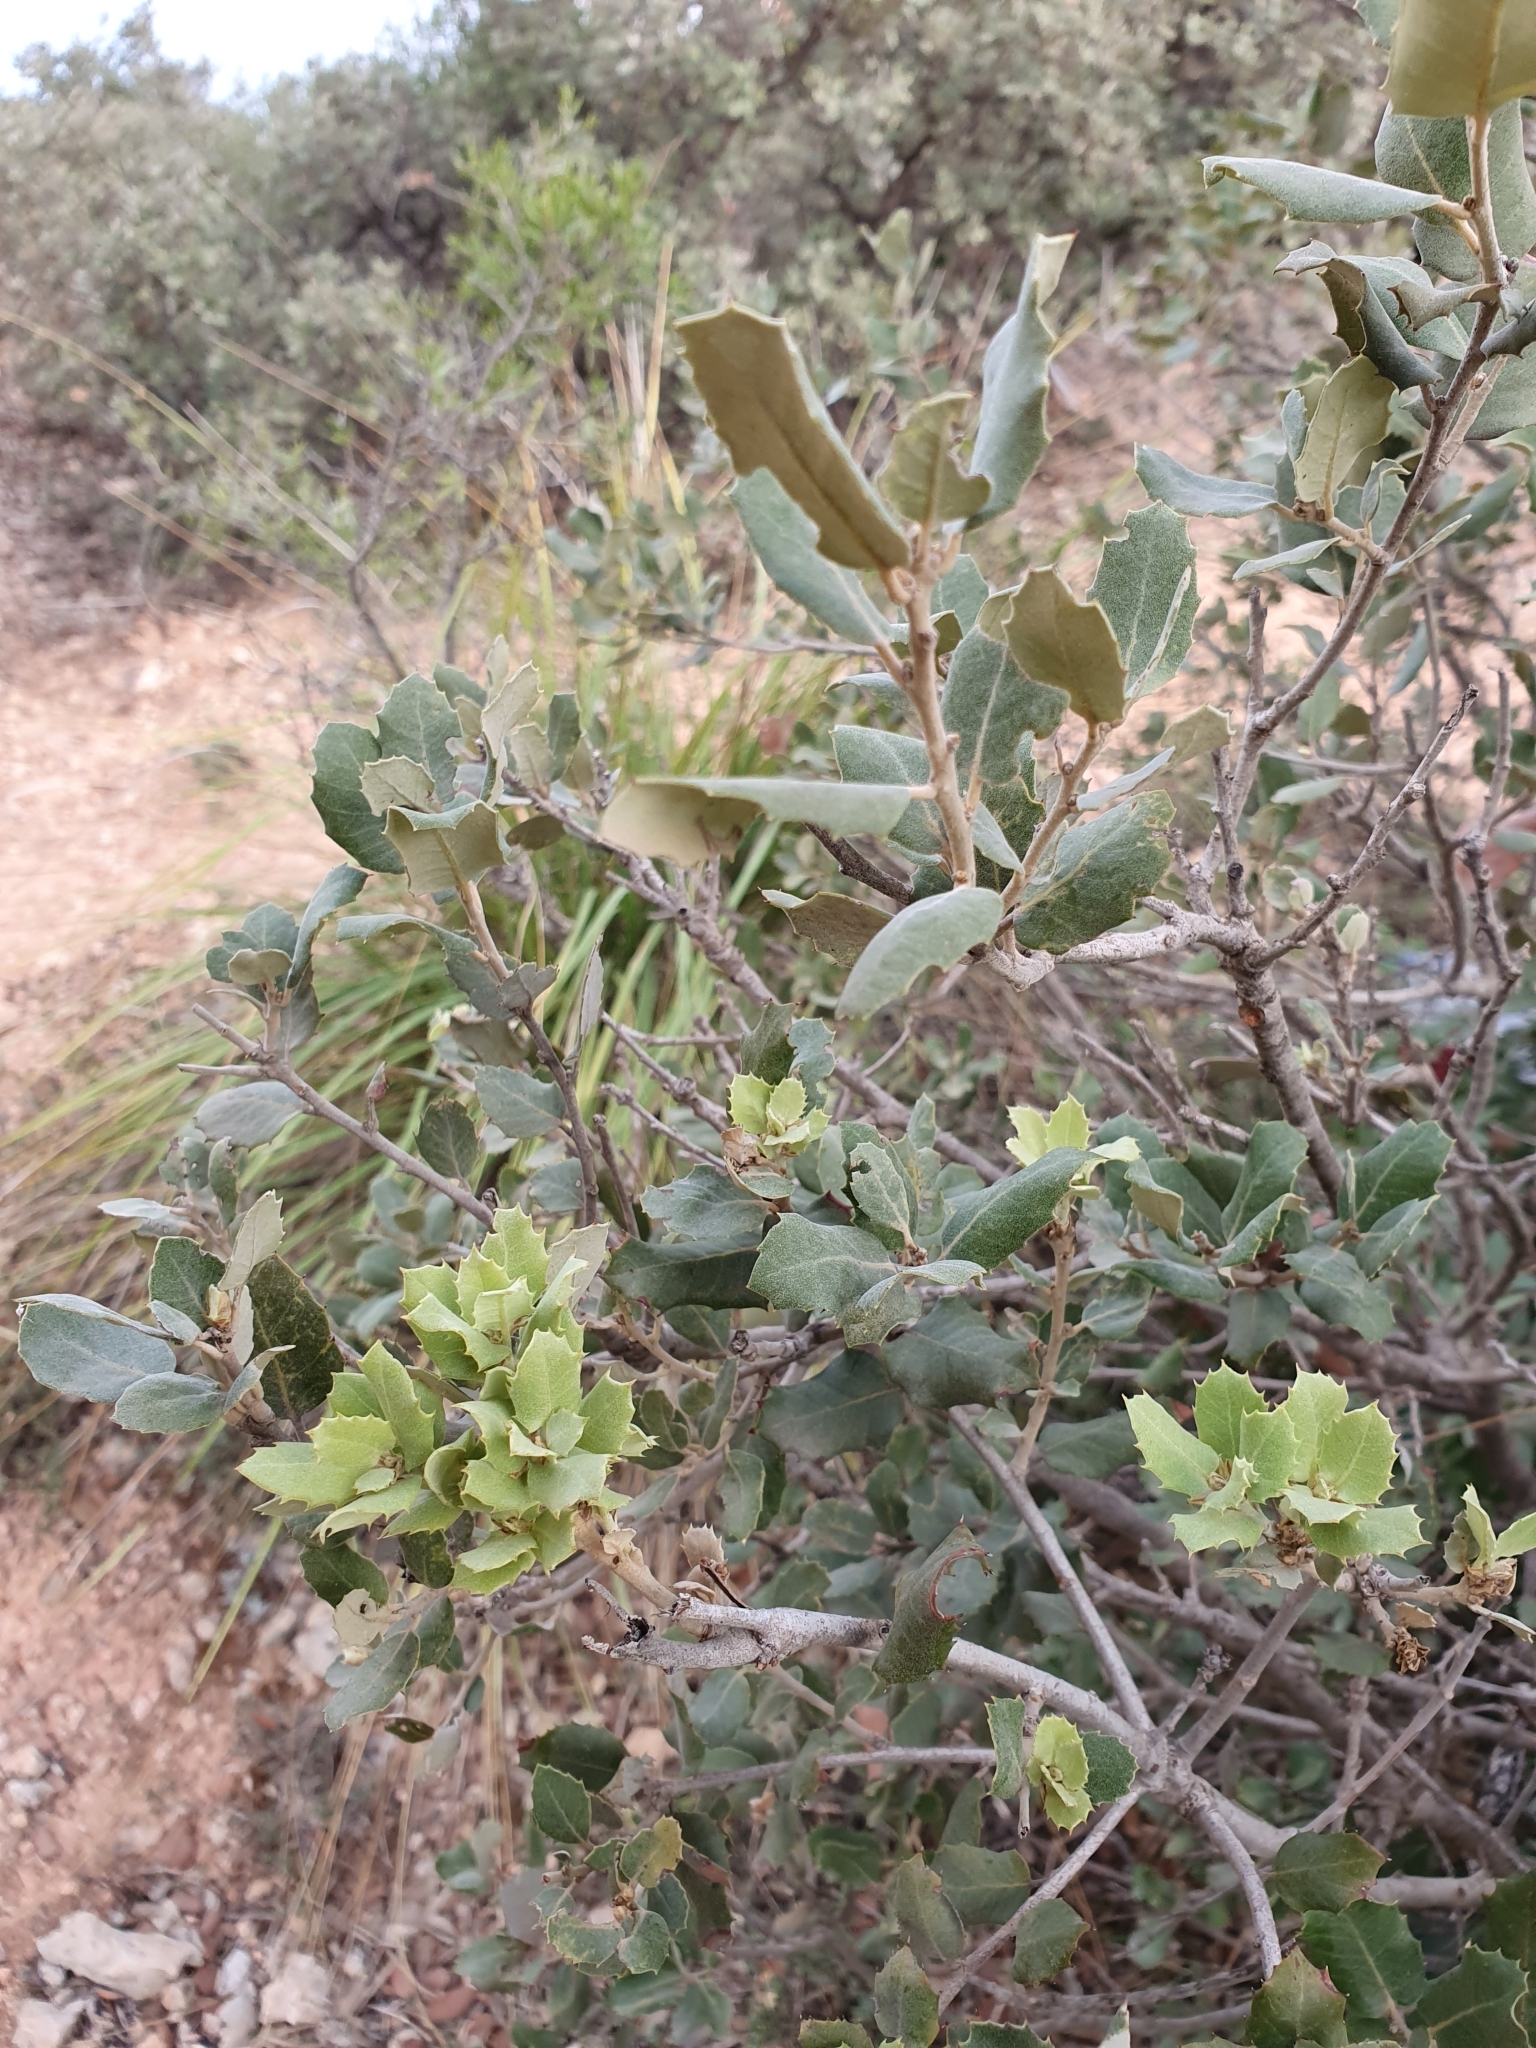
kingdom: Plantae
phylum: Tracheophyta
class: Magnoliopsida
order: Fagales
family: Fagaceae
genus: Quercus
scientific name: Quercus rotundifolia
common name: Holm oak
